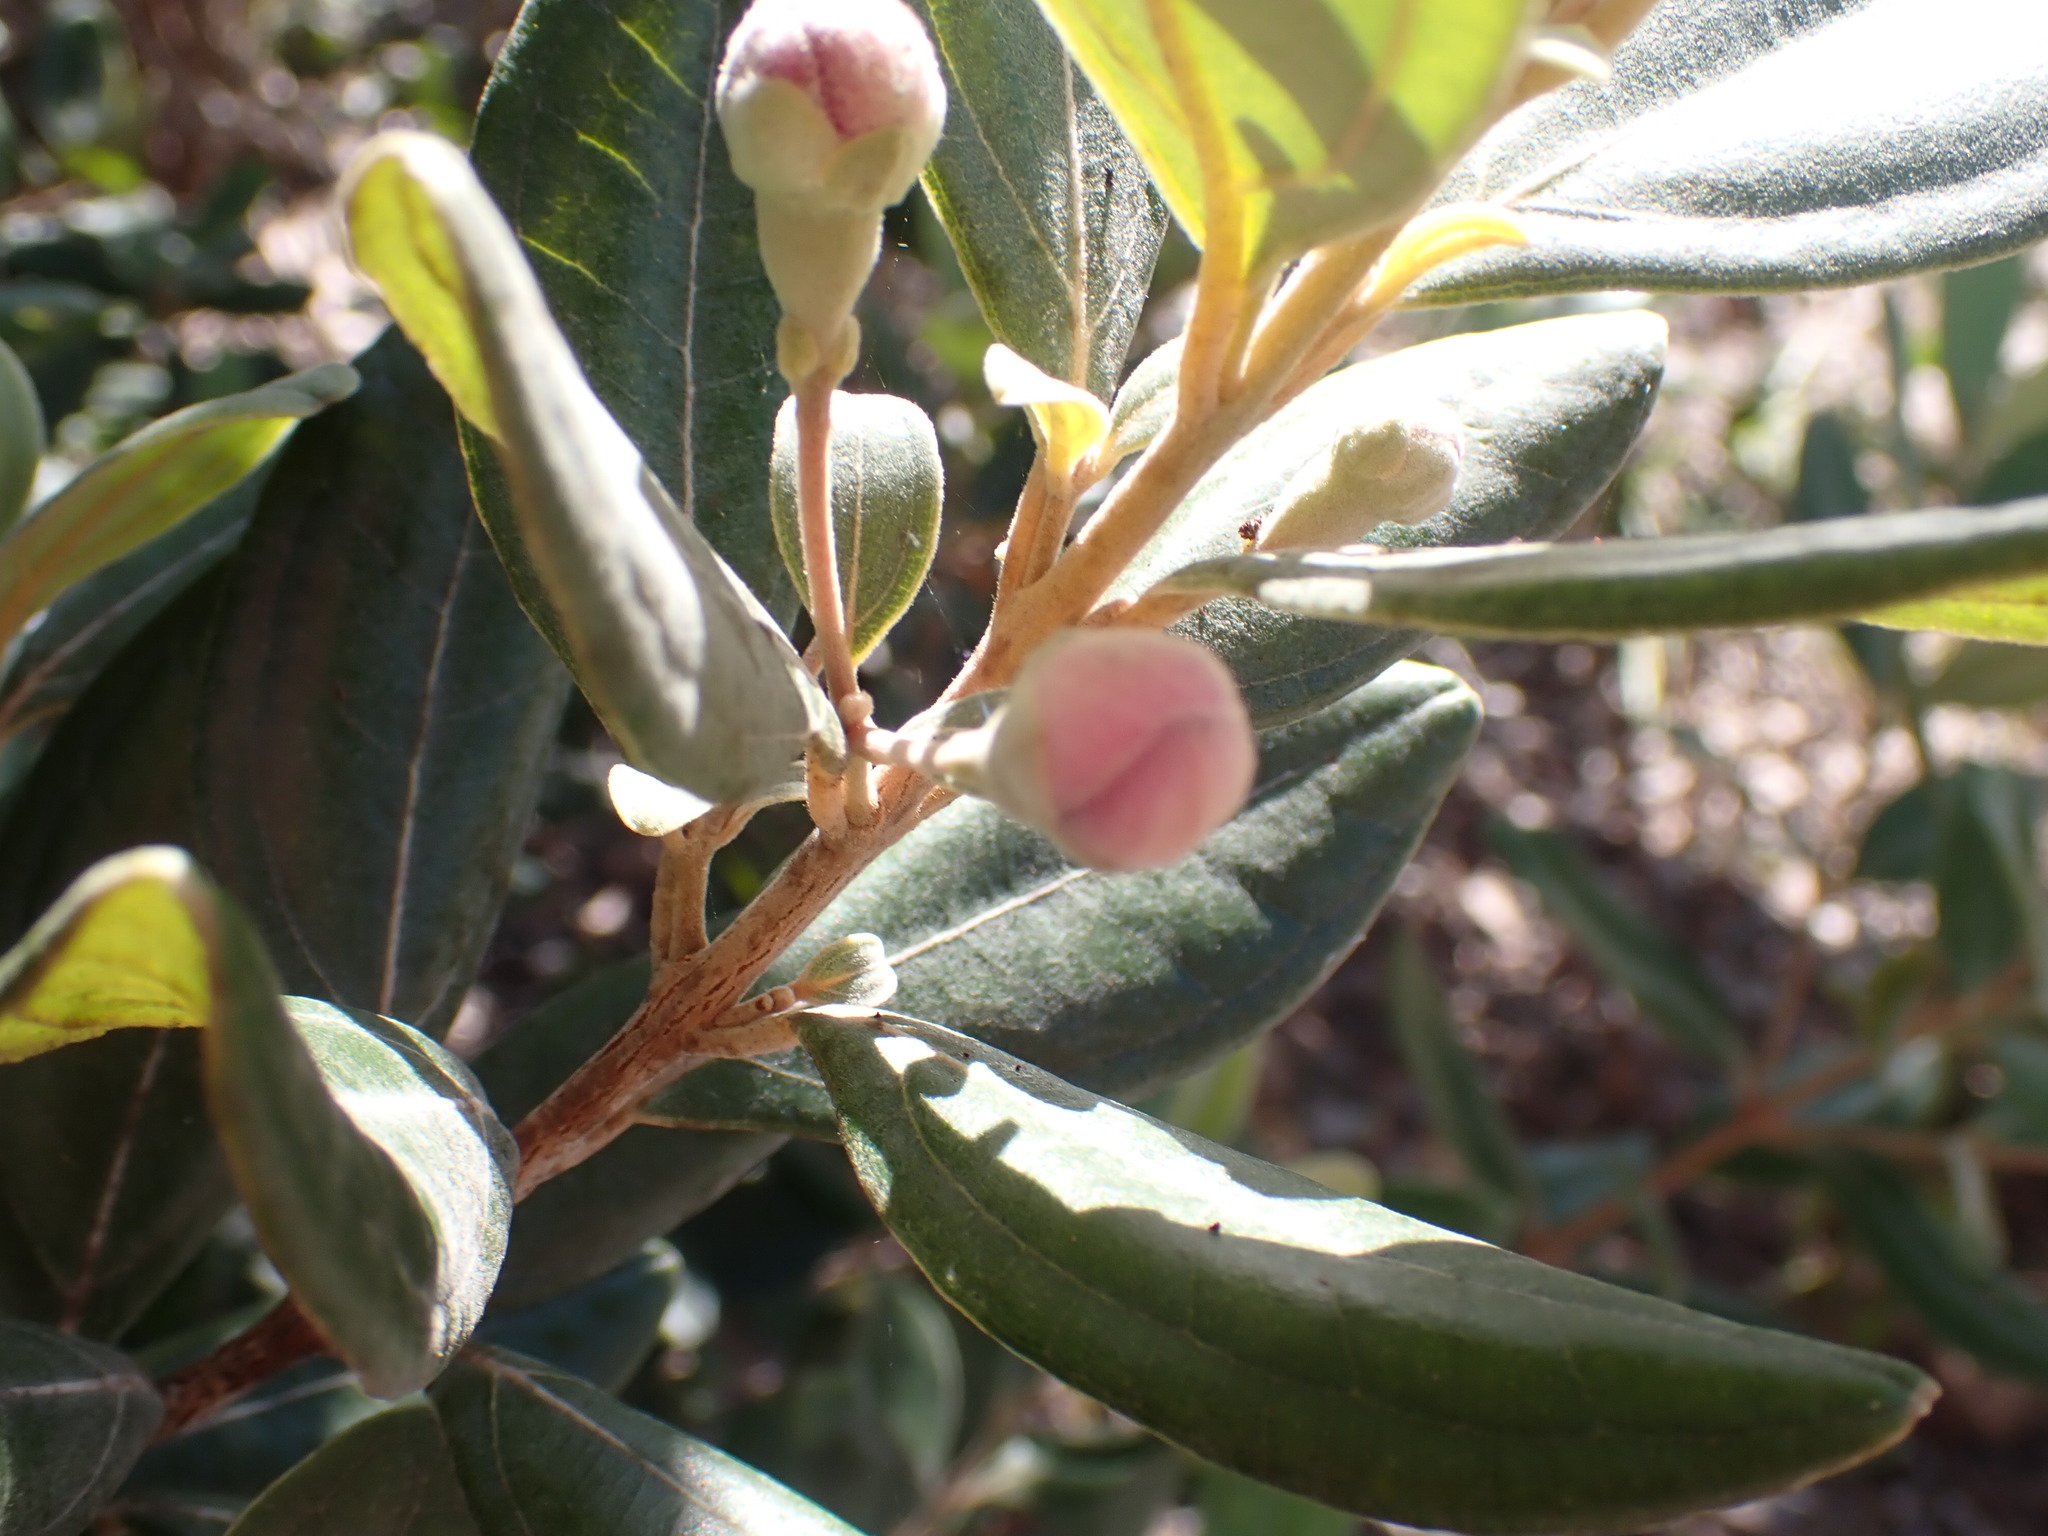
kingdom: Plantae
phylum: Tracheophyta
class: Magnoliopsida
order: Myrtales
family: Myrtaceae
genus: Rhodomyrtus
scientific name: Rhodomyrtus tomentosa
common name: Rose myrtle
